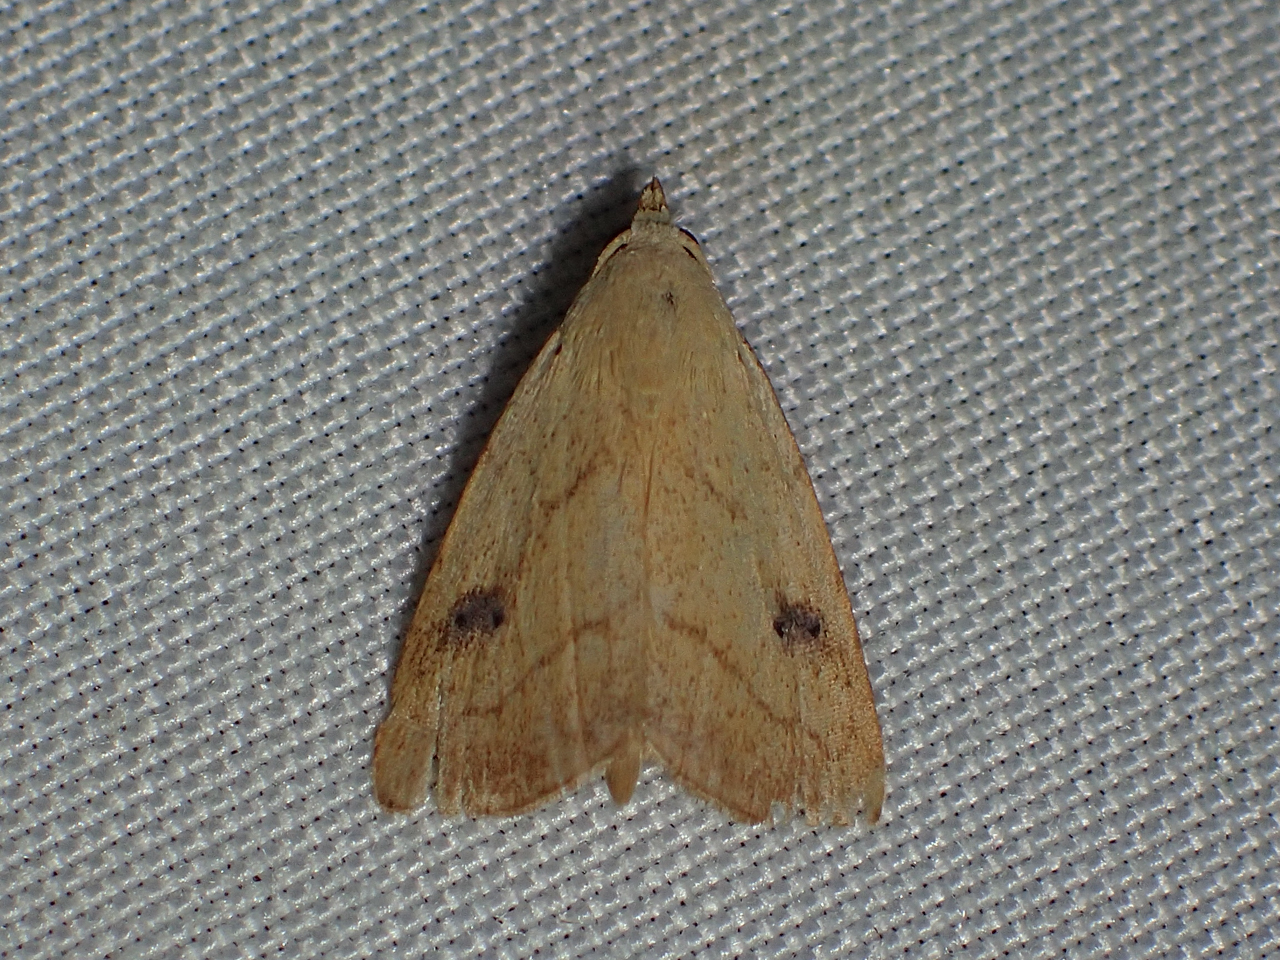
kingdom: Animalia
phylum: Arthropoda
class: Insecta
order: Lepidoptera
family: Erebidae
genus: Rivula
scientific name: Rivula propinqualis
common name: Spotted grass moth
